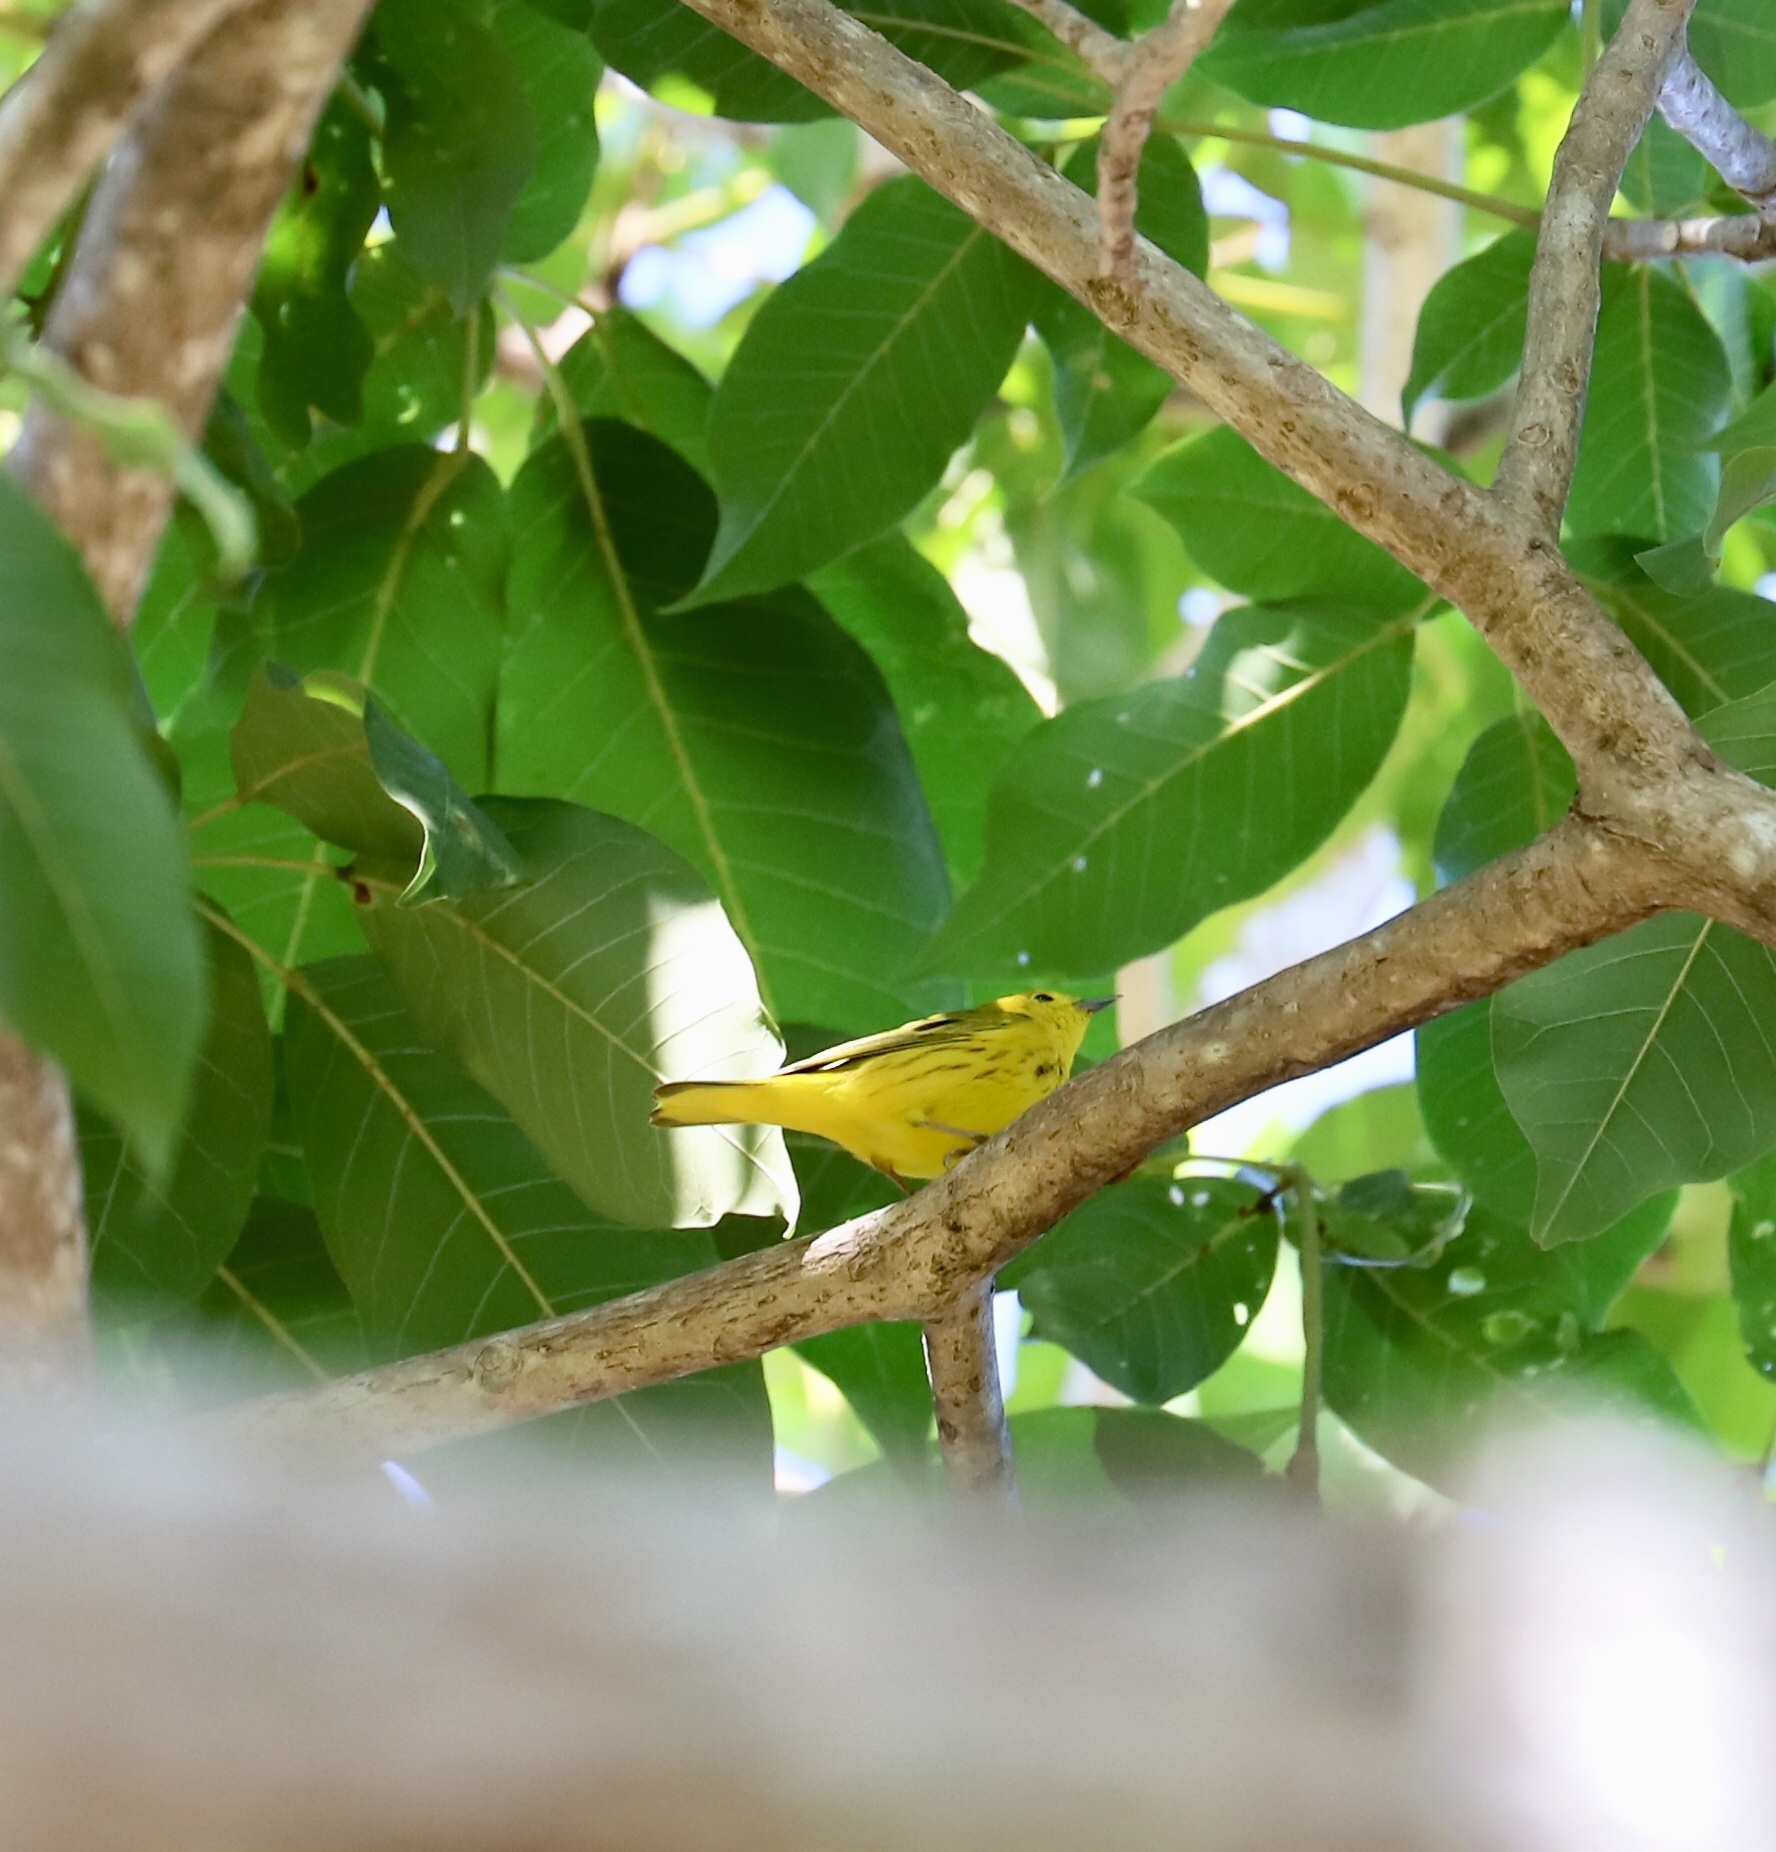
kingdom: Animalia
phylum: Chordata
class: Aves
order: Passeriformes
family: Parulidae
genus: Setophaga
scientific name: Setophaga petechia
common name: Yellow warbler
